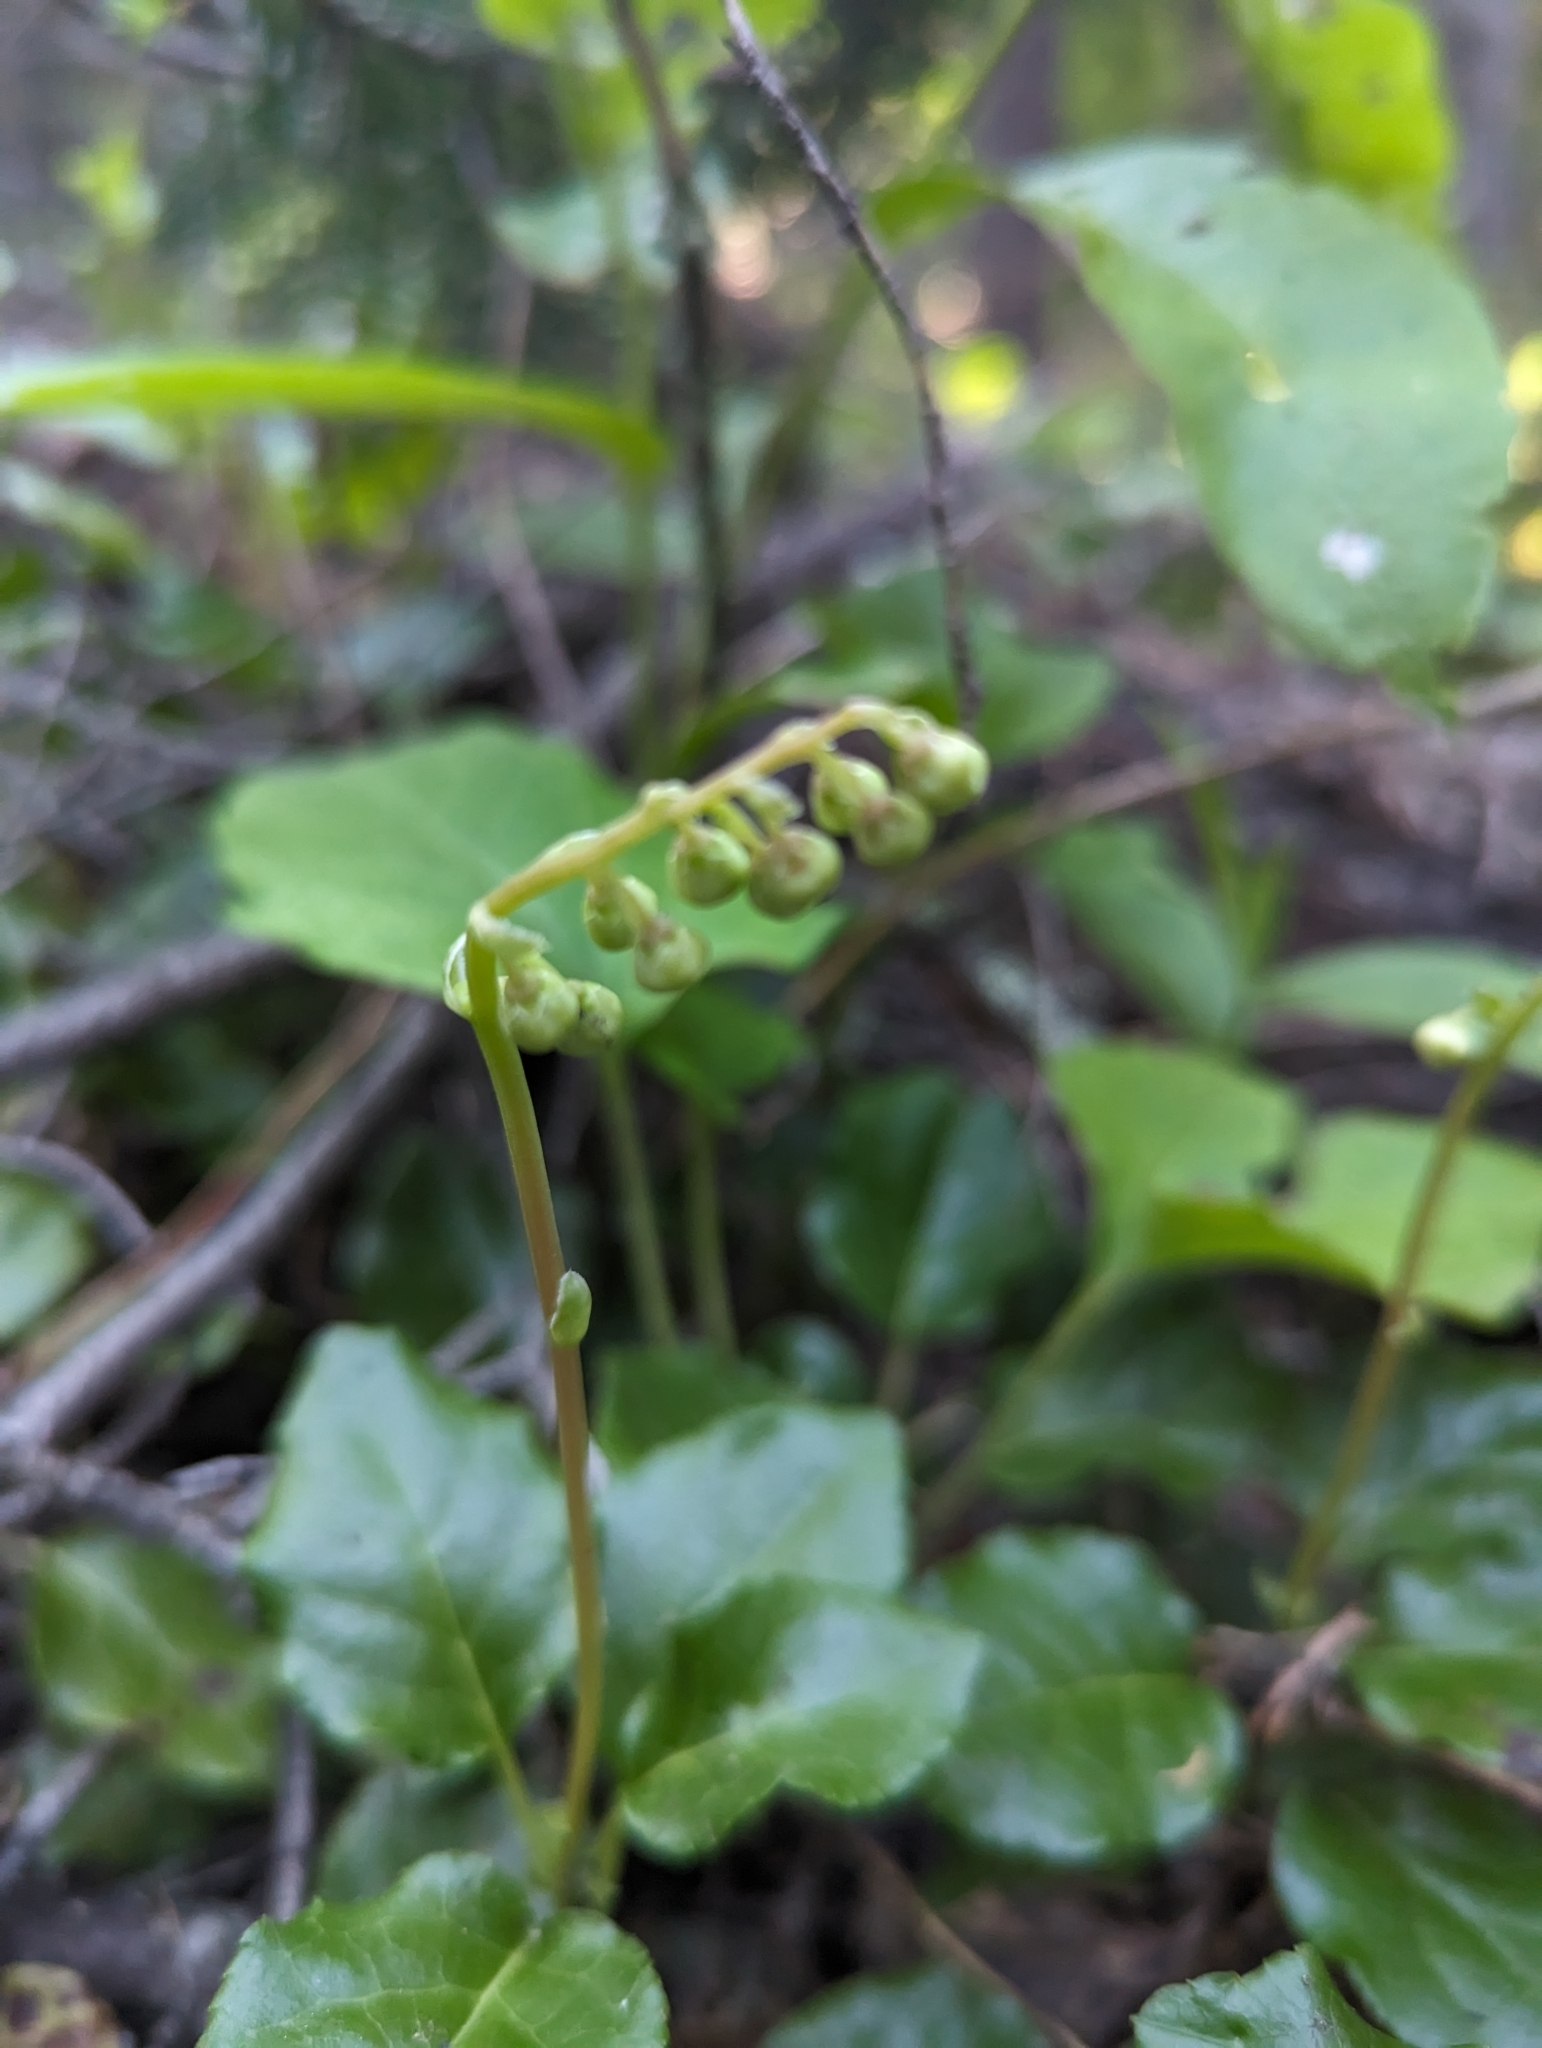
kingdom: Plantae
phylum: Tracheophyta
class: Magnoliopsida
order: Ericales
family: Ericaceae
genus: Orthilia
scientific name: Orthilia secunda
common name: One-sided orthilia
